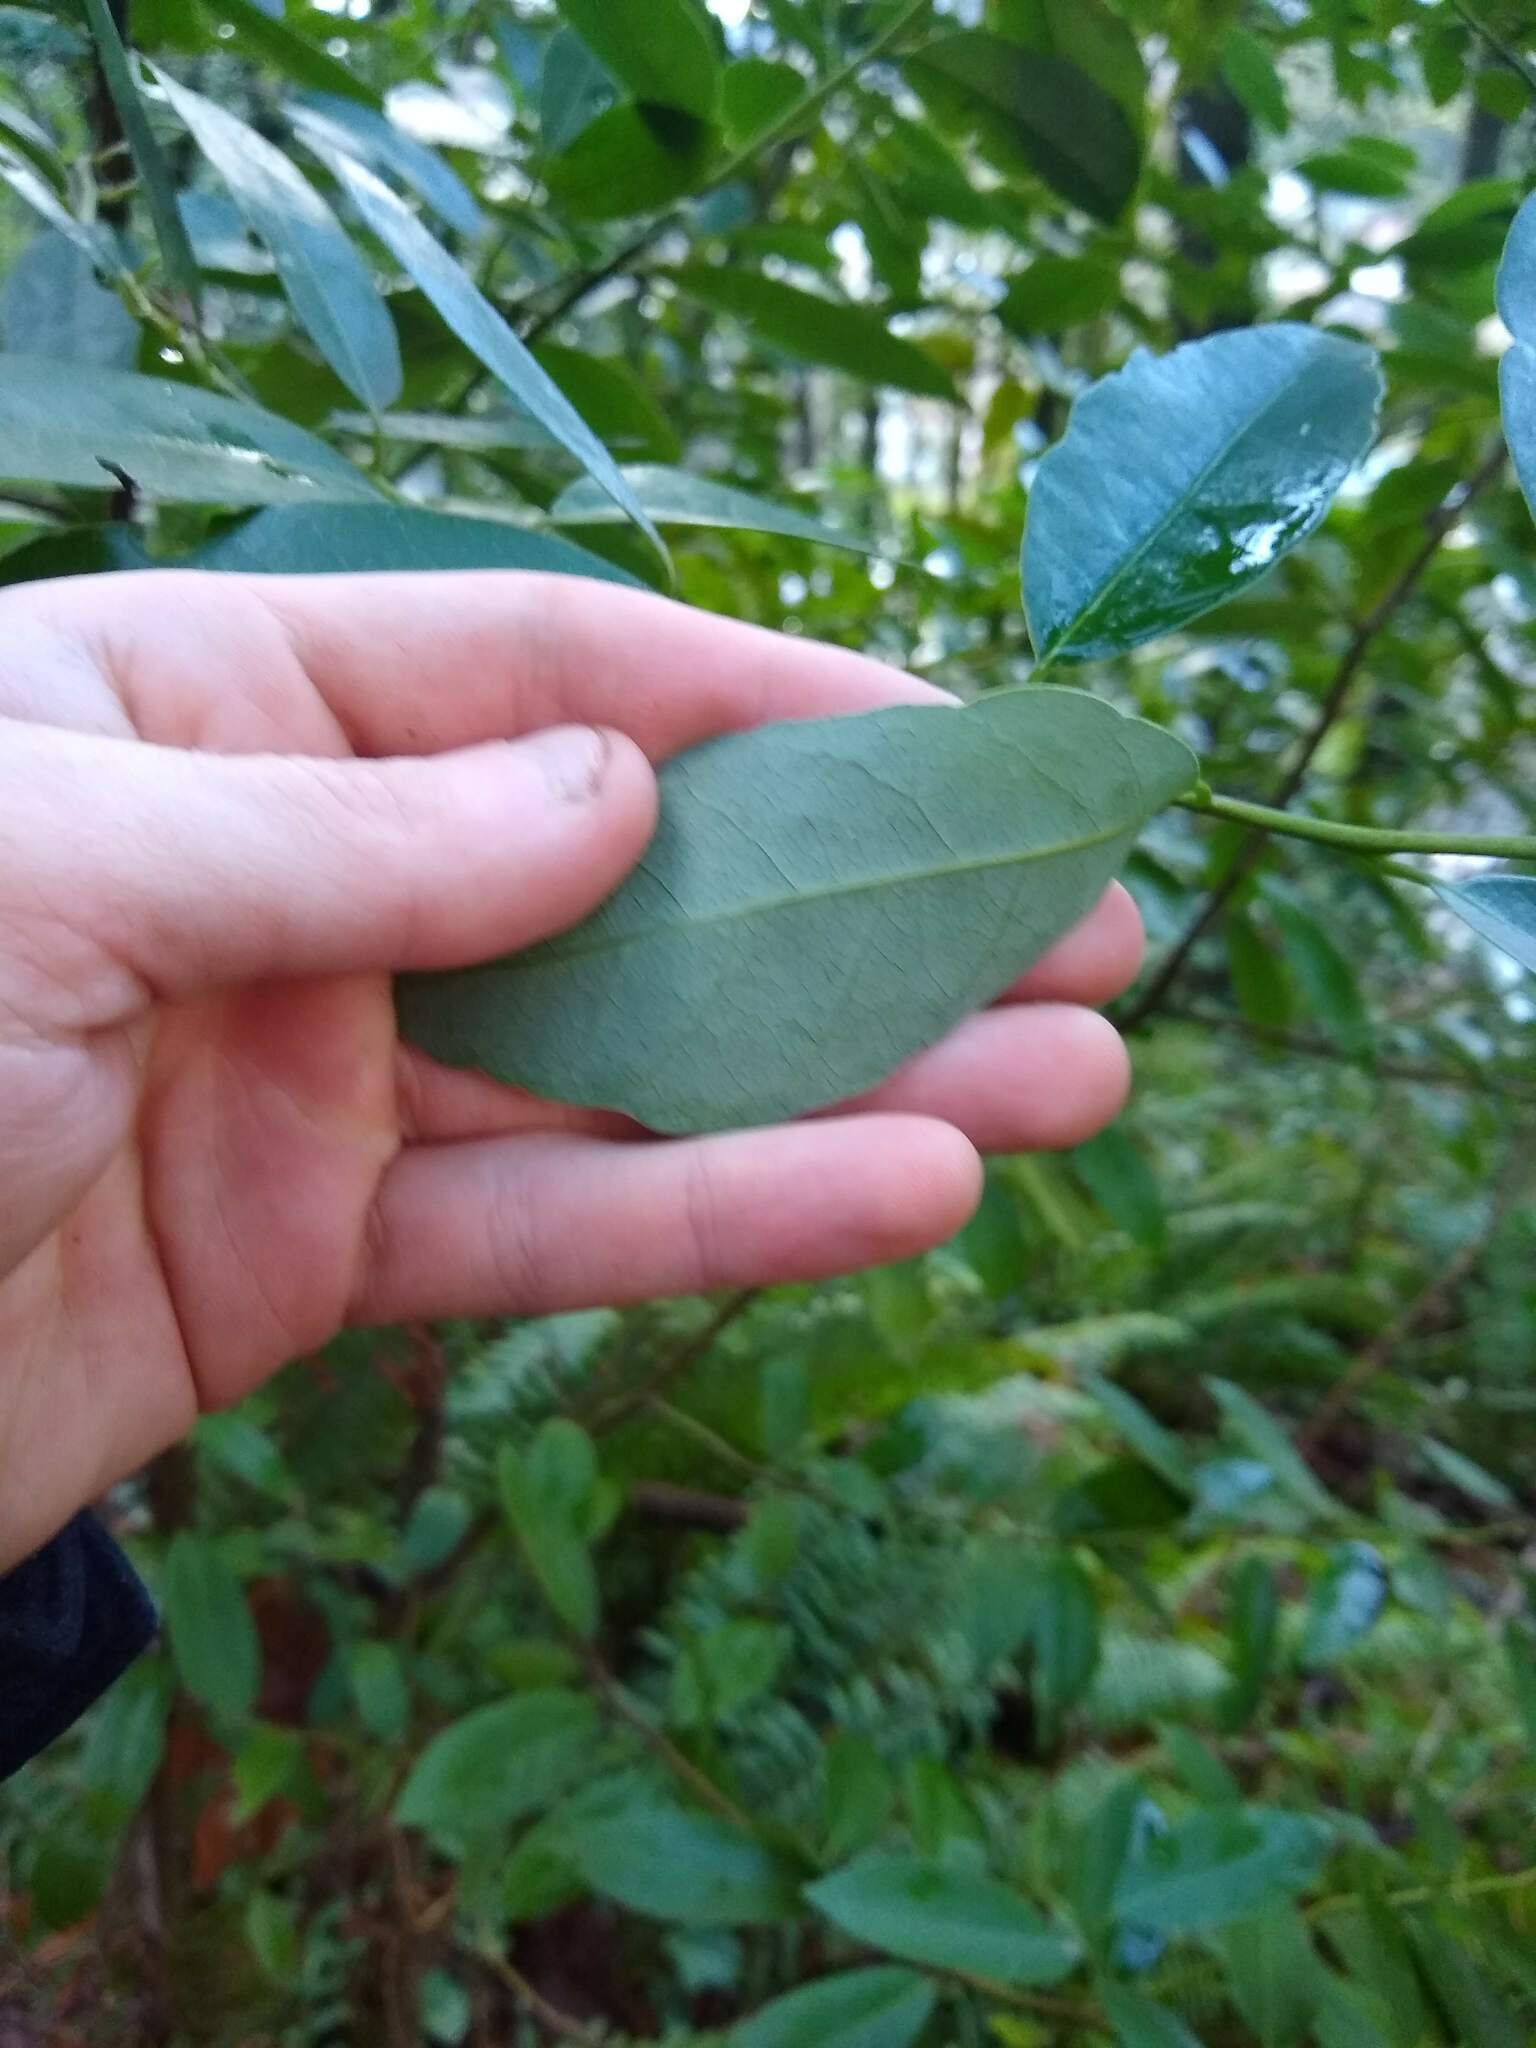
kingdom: Plantae
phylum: Tracheophyta
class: Magnoliopsida
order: Laurales
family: Lauraceae
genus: Umbellularia
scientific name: Umbellularia californica
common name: California bay
